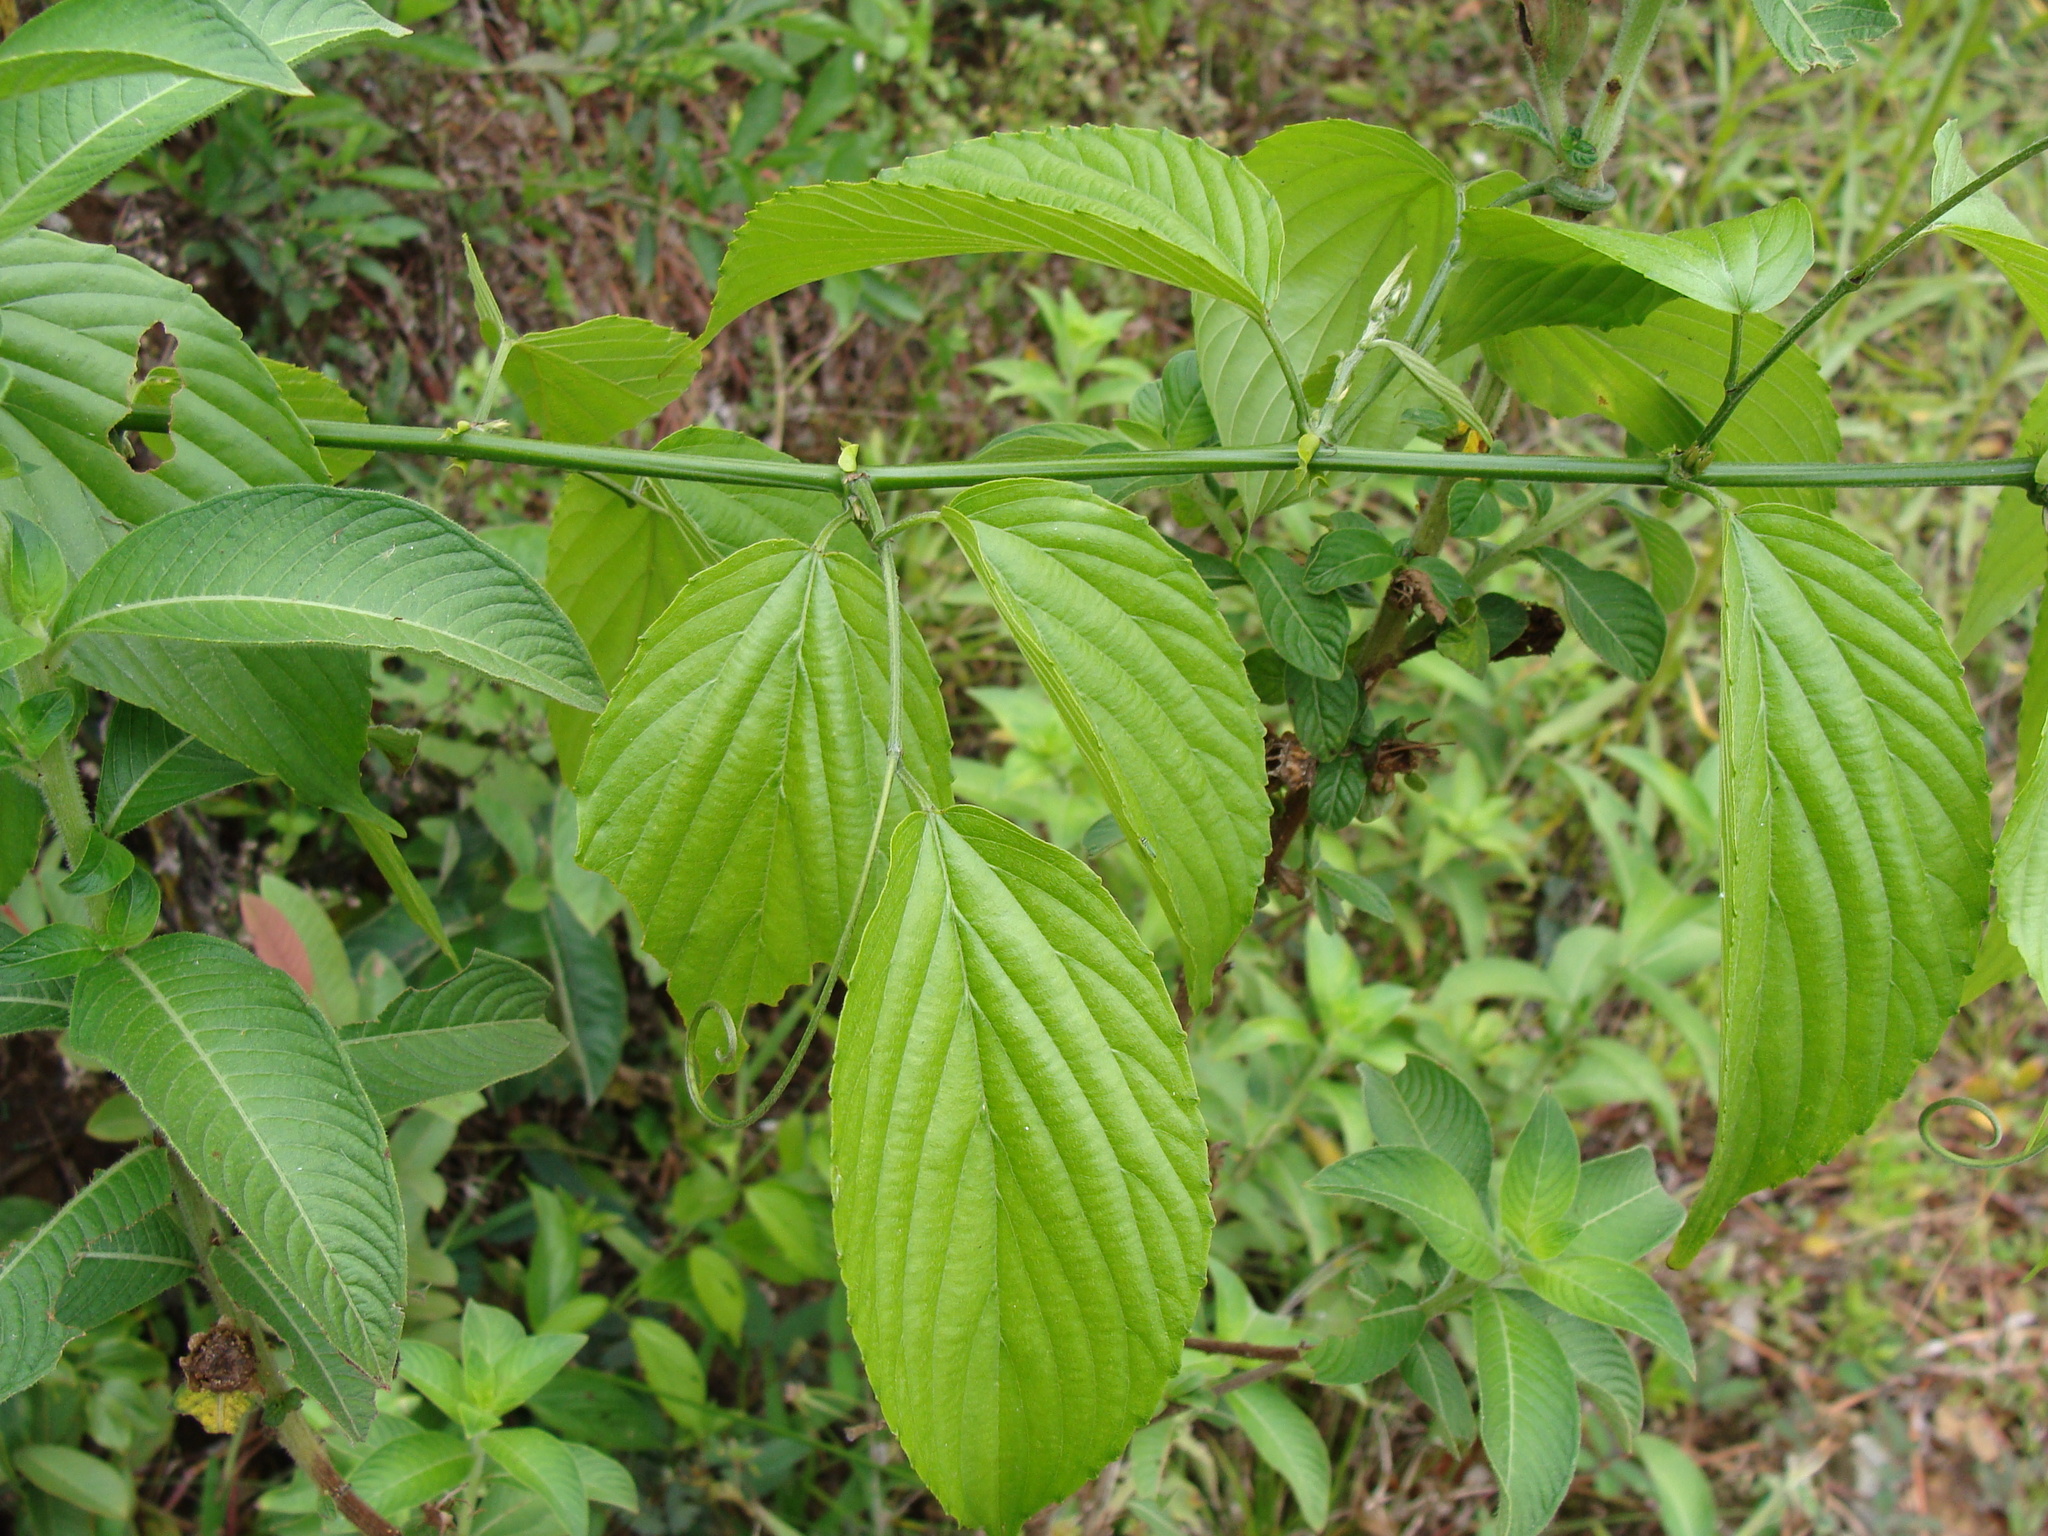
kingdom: Plantae
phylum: Tracheophyta
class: Magnoliopsida
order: Rosales
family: Rhamnaceae
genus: Gouania
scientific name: Gouania lupuloides
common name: Chewstick
